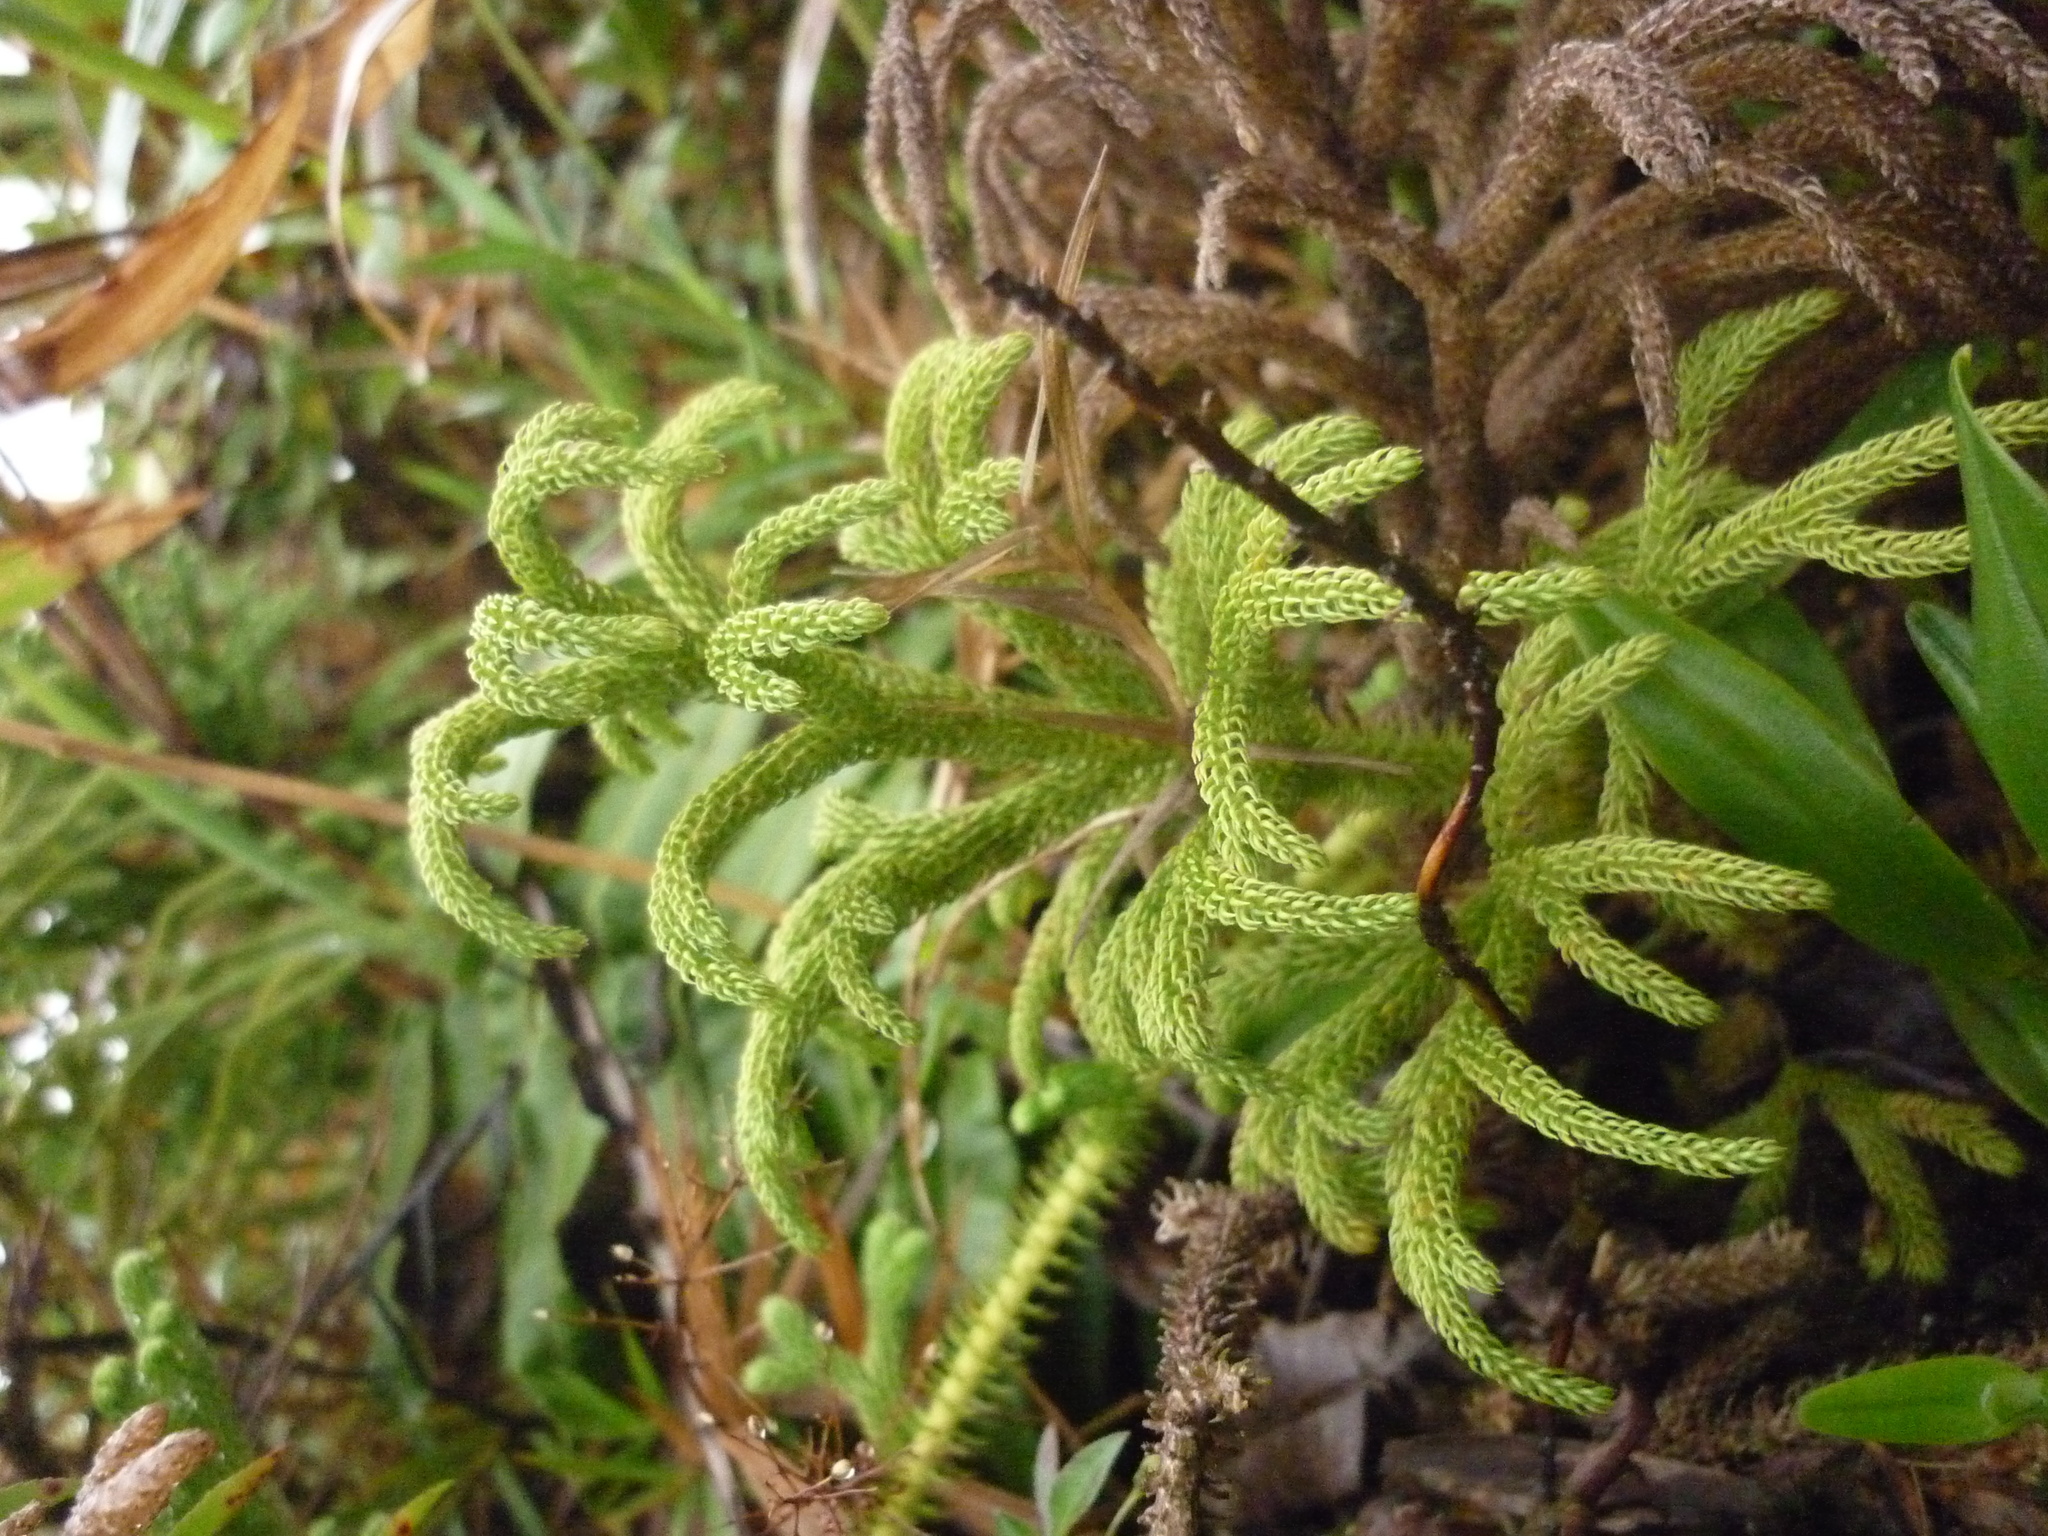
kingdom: Plantae
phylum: Tracheophyta
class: Lycopodiopsida
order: Lycopodiales
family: Lycopodiaceae
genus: Palhinhaea
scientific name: Palhinhaea torta
